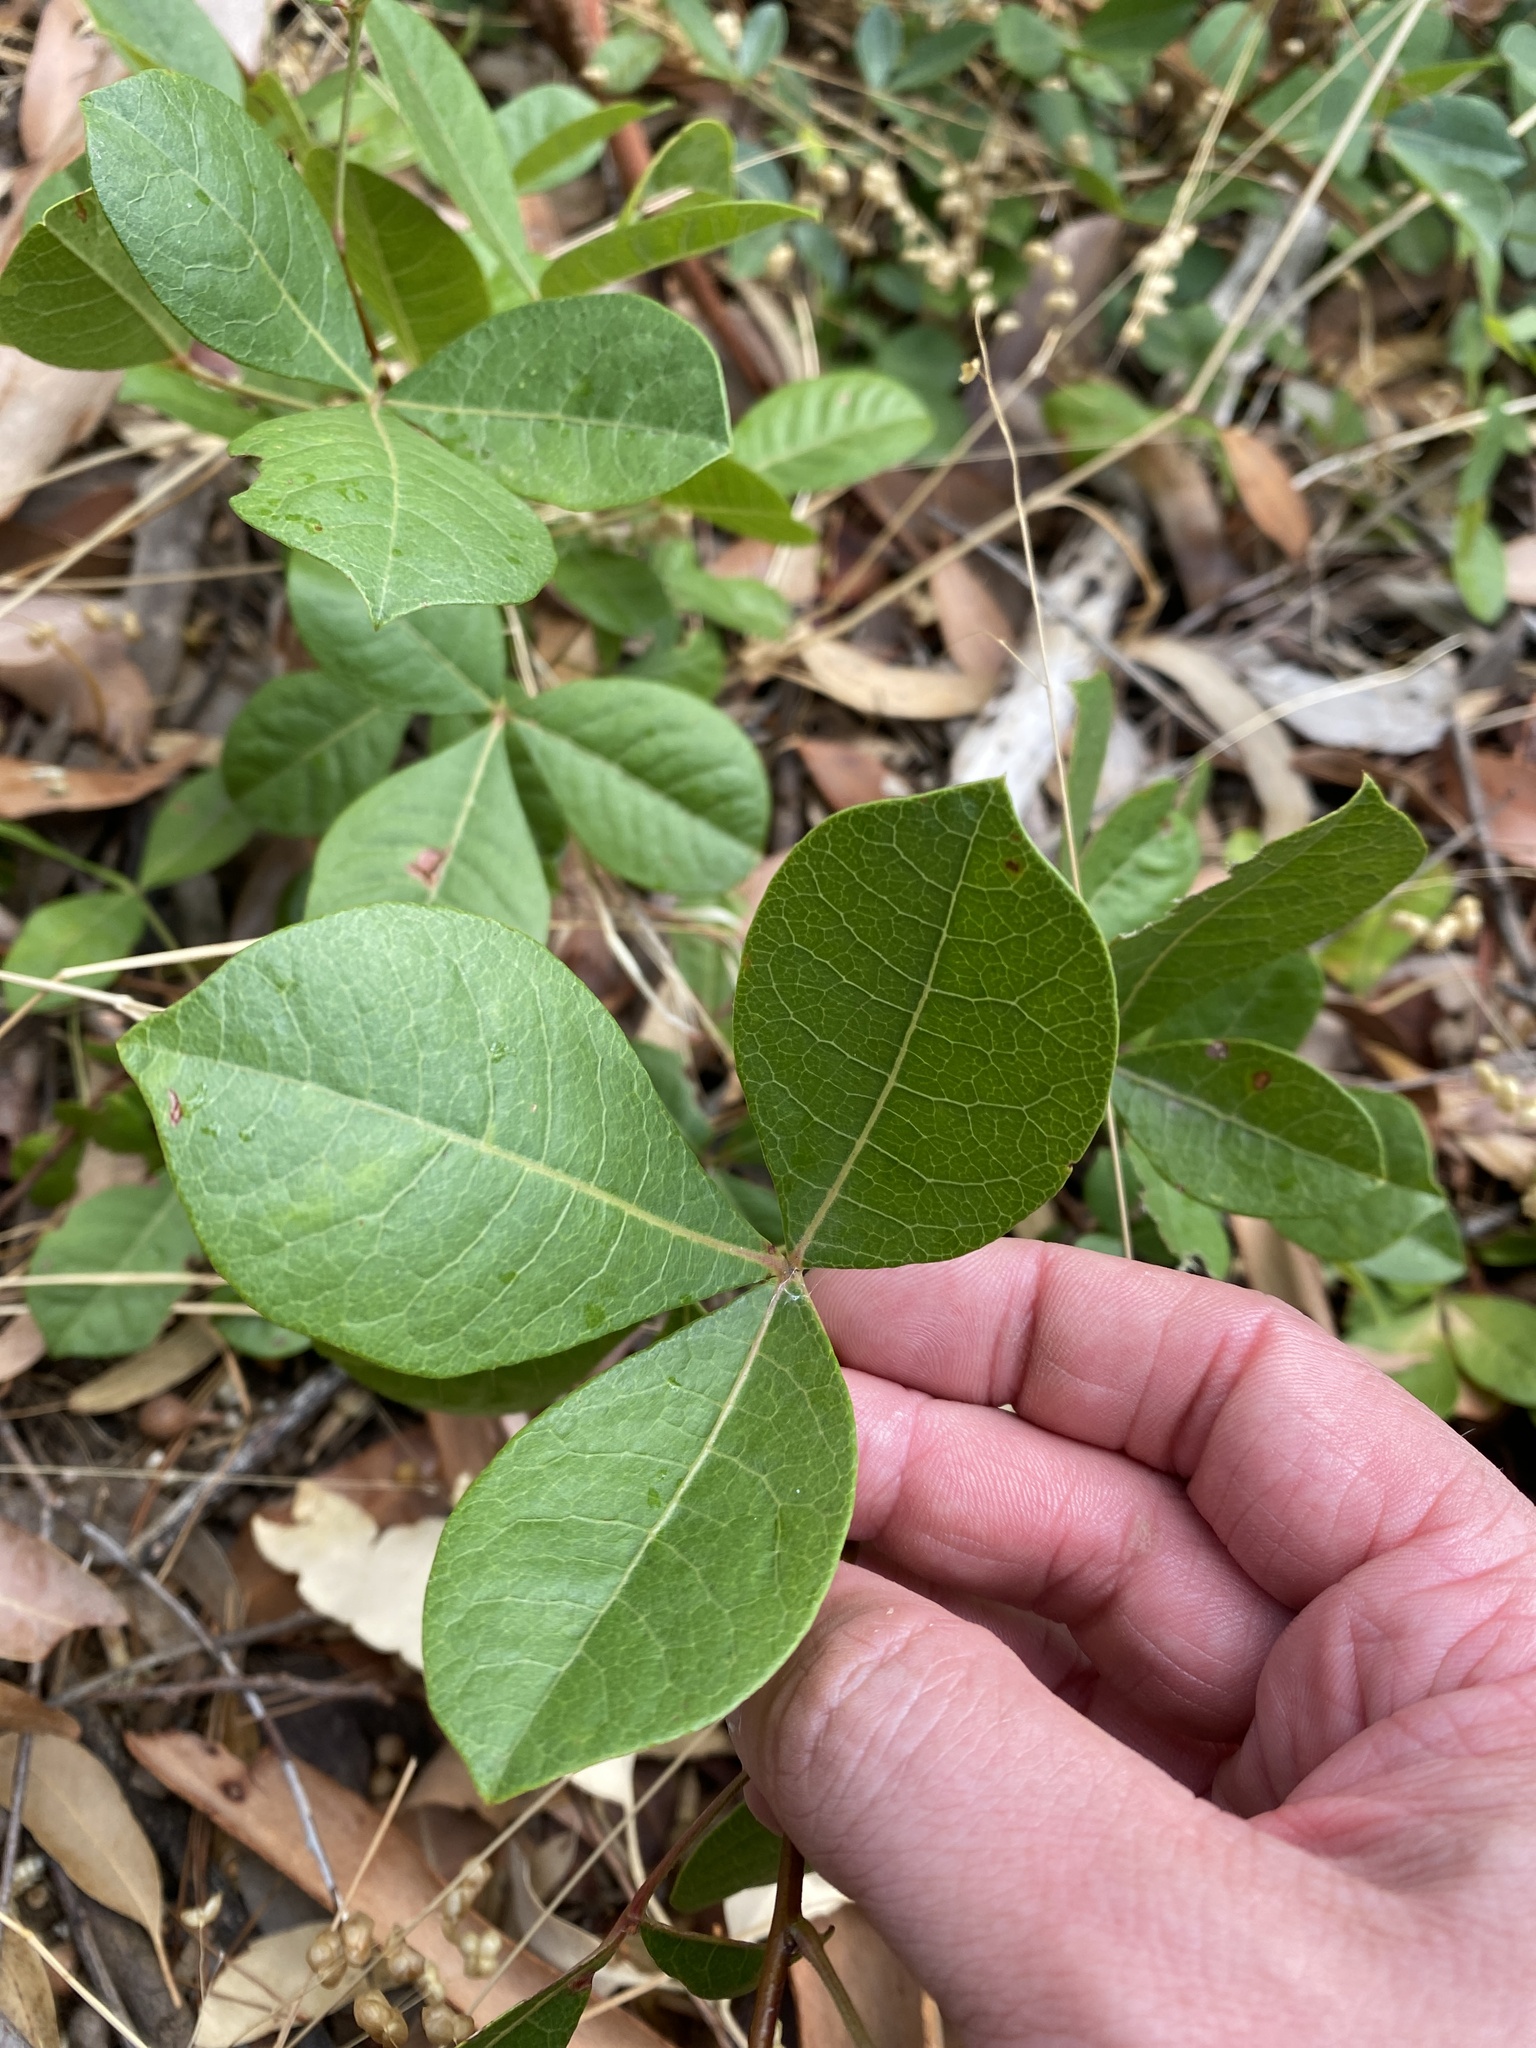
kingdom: Plantae
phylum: Tracheophyta
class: Magnoliopsida
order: Sapindales
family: Anacardiaceae
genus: Searsia
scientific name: Searsia laevigata
